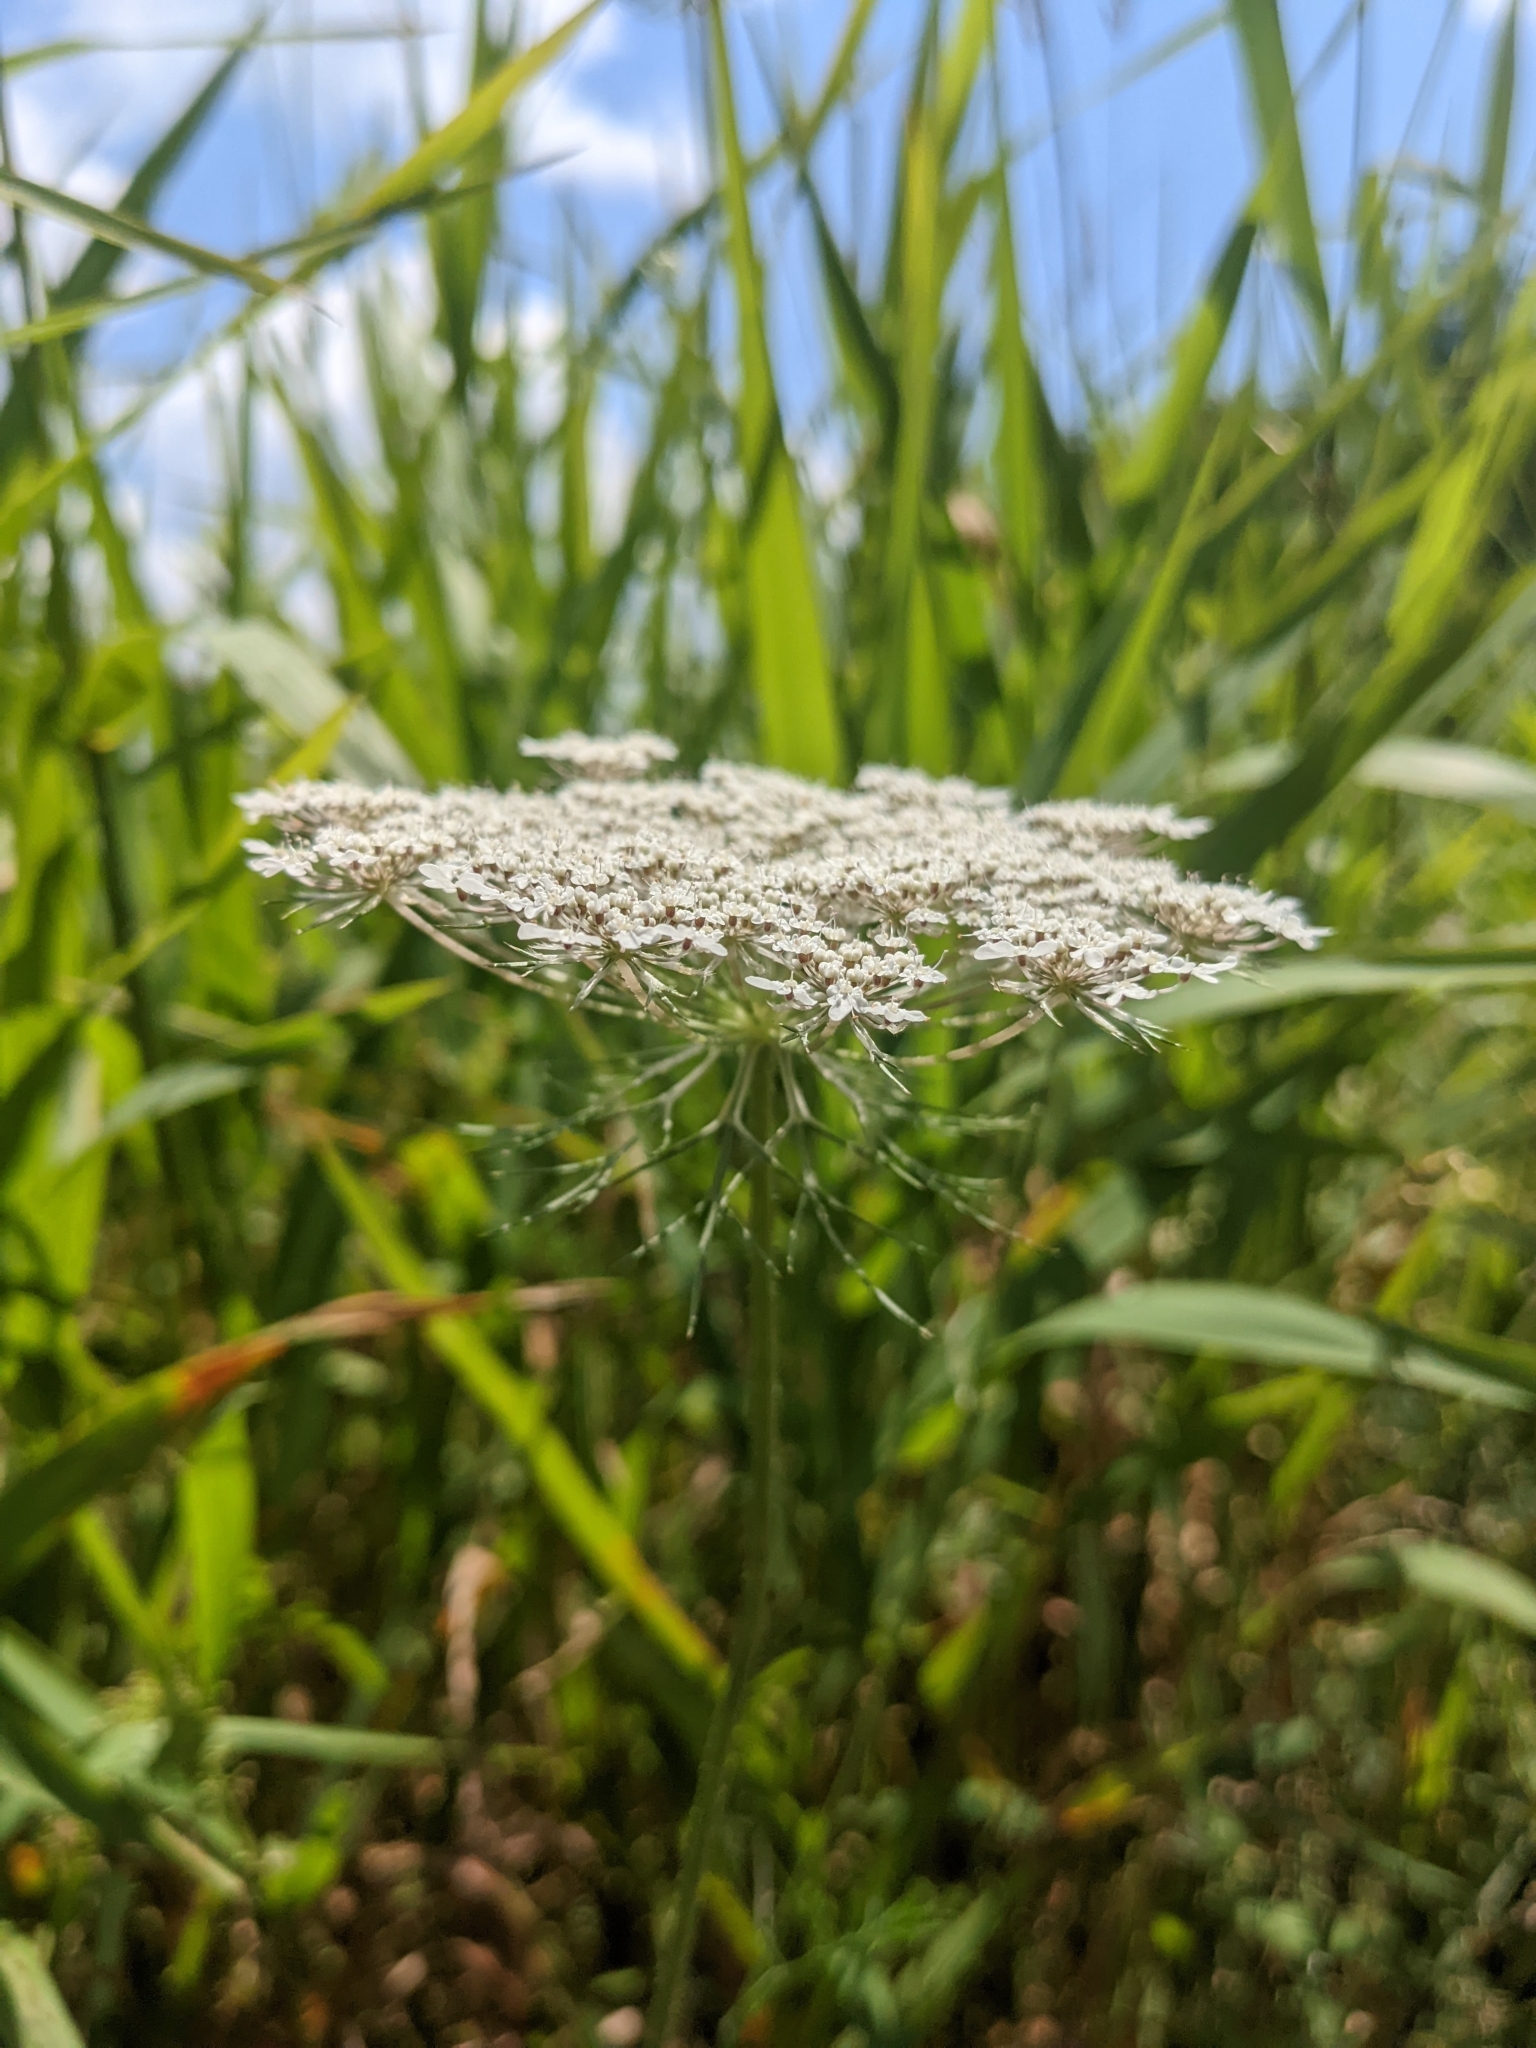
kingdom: Plantae
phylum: Tracheophyta
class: Magnoliopsida
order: Apiales
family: Apiaceae
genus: Daucus
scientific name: Daucus carota
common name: Wild carrot
